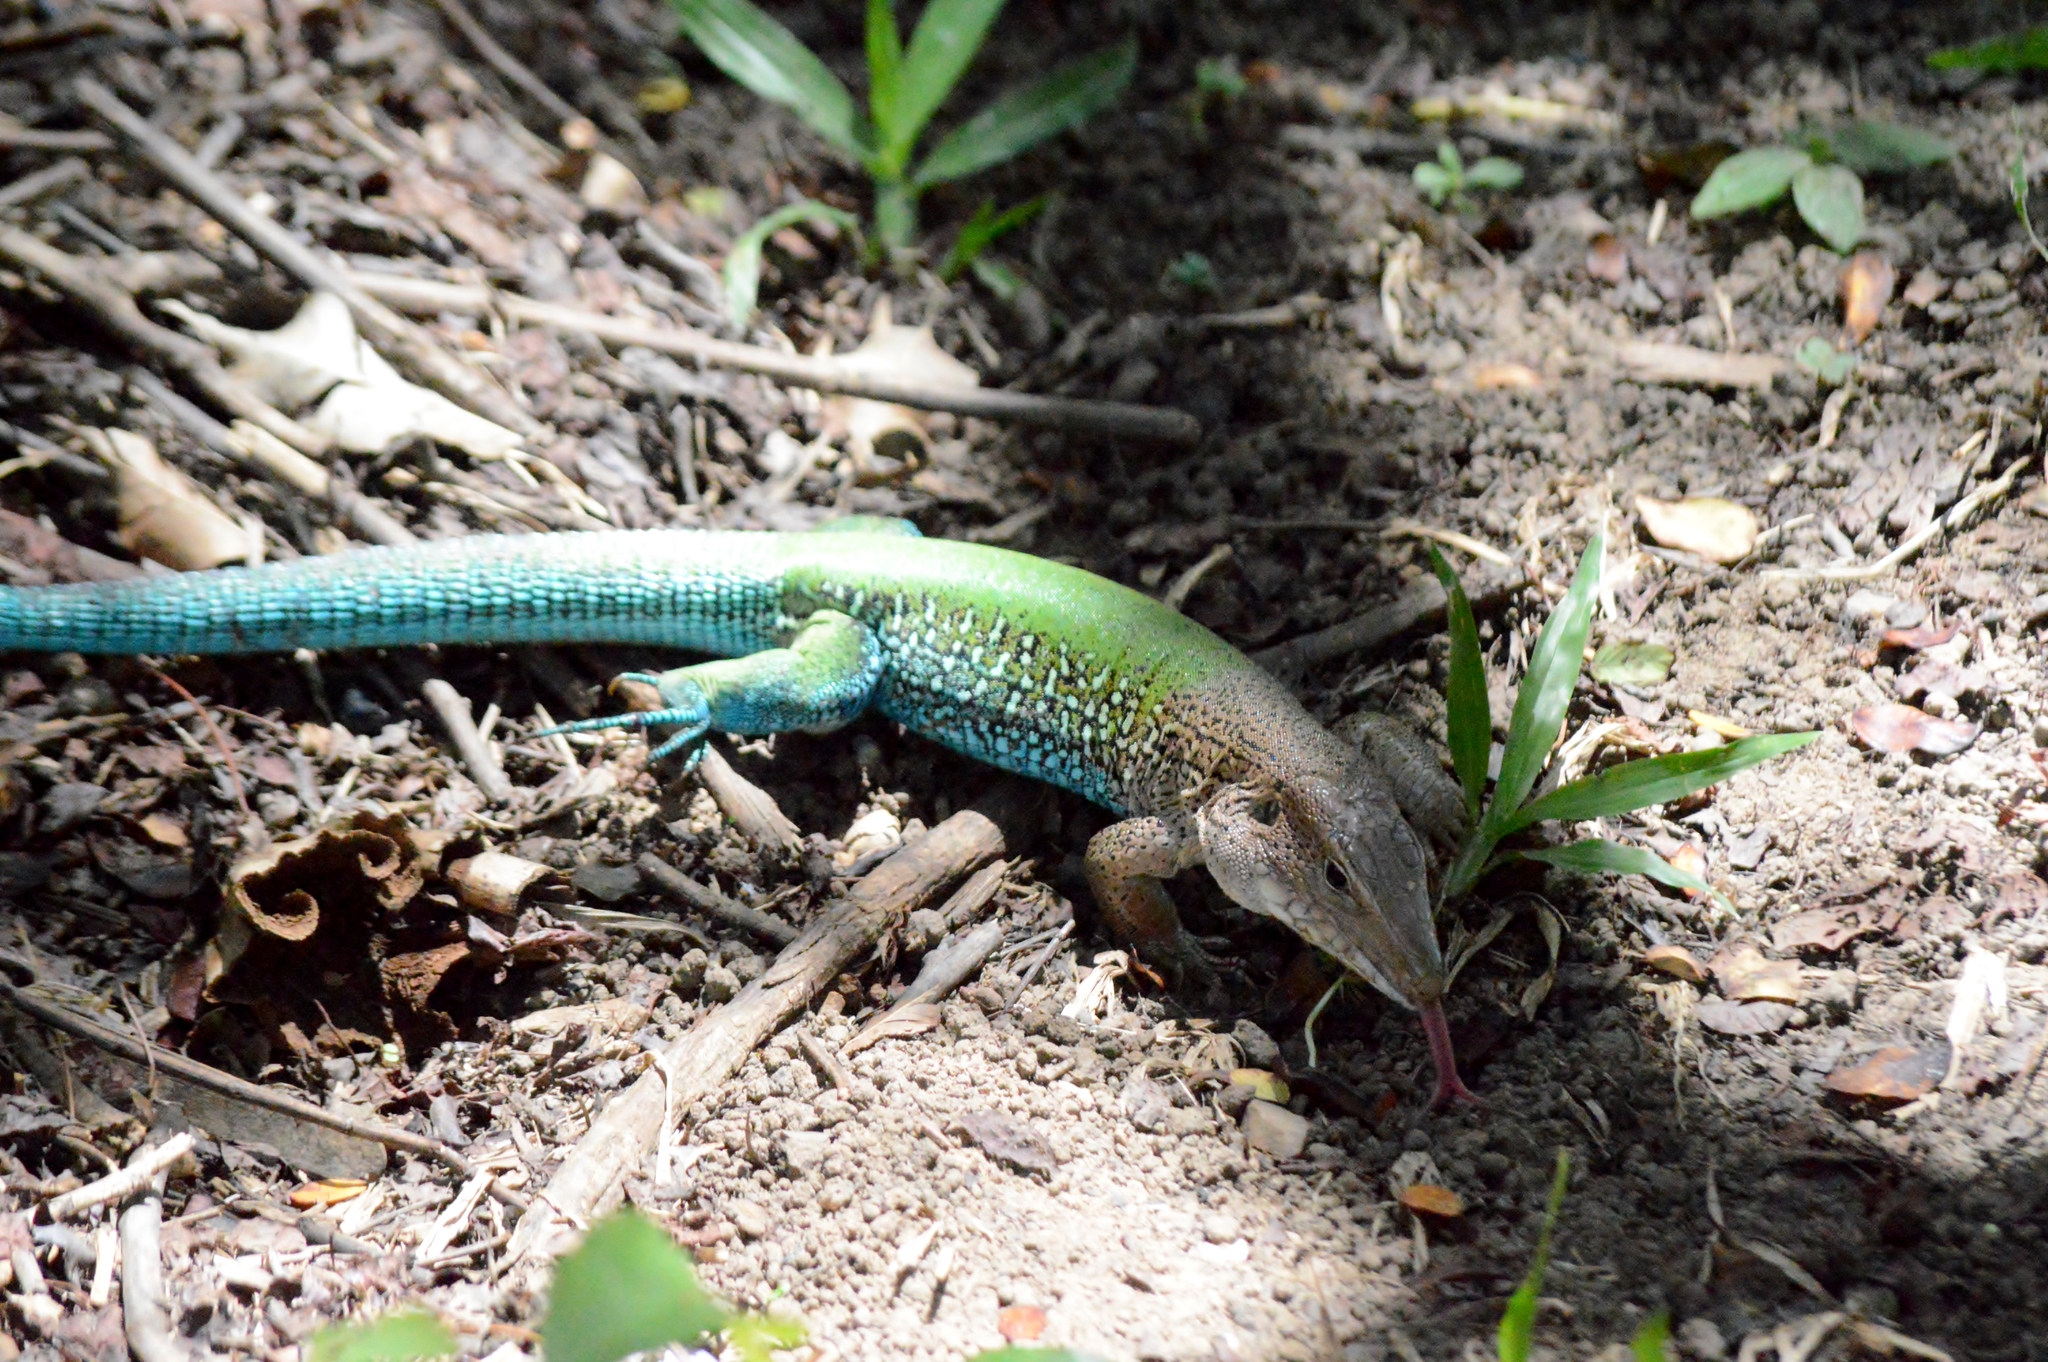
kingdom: Animalia
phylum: Chordata
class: Squamata
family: Teiidae
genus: Ameiva
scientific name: Ameiva ameiva
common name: Giant ameiva
